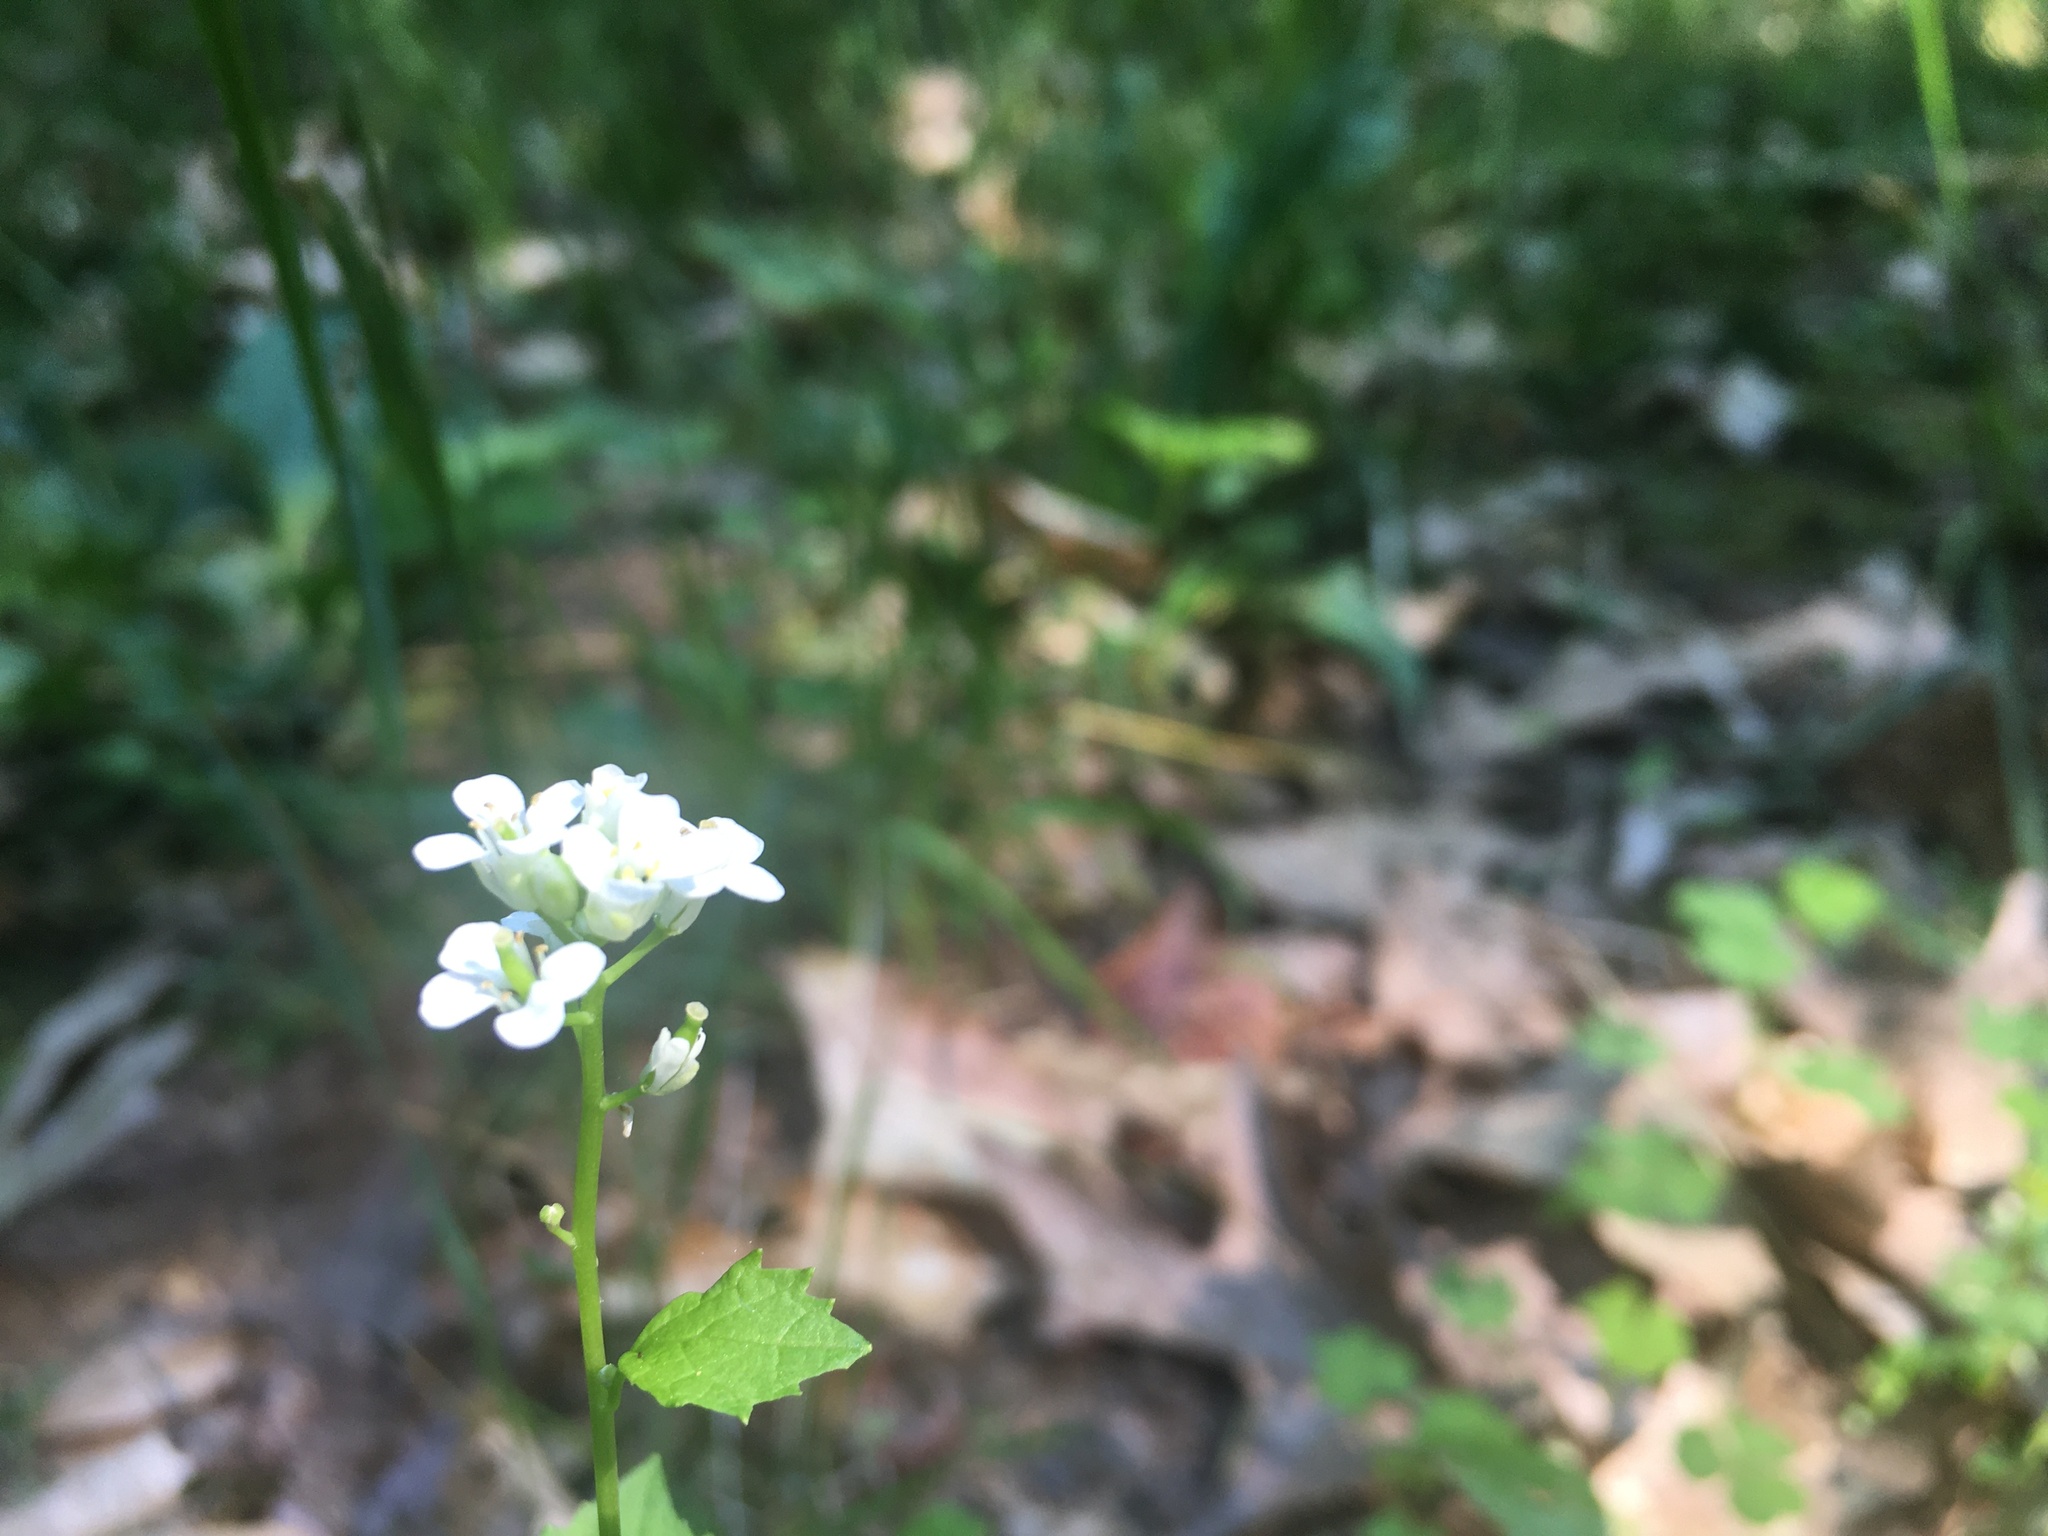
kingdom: Plantae
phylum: Tracheophyta
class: Magnoliopsida
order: Brassicales
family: Brassicaceae
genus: Alliaria
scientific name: Alliaria petiolata
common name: Garlic mustard
